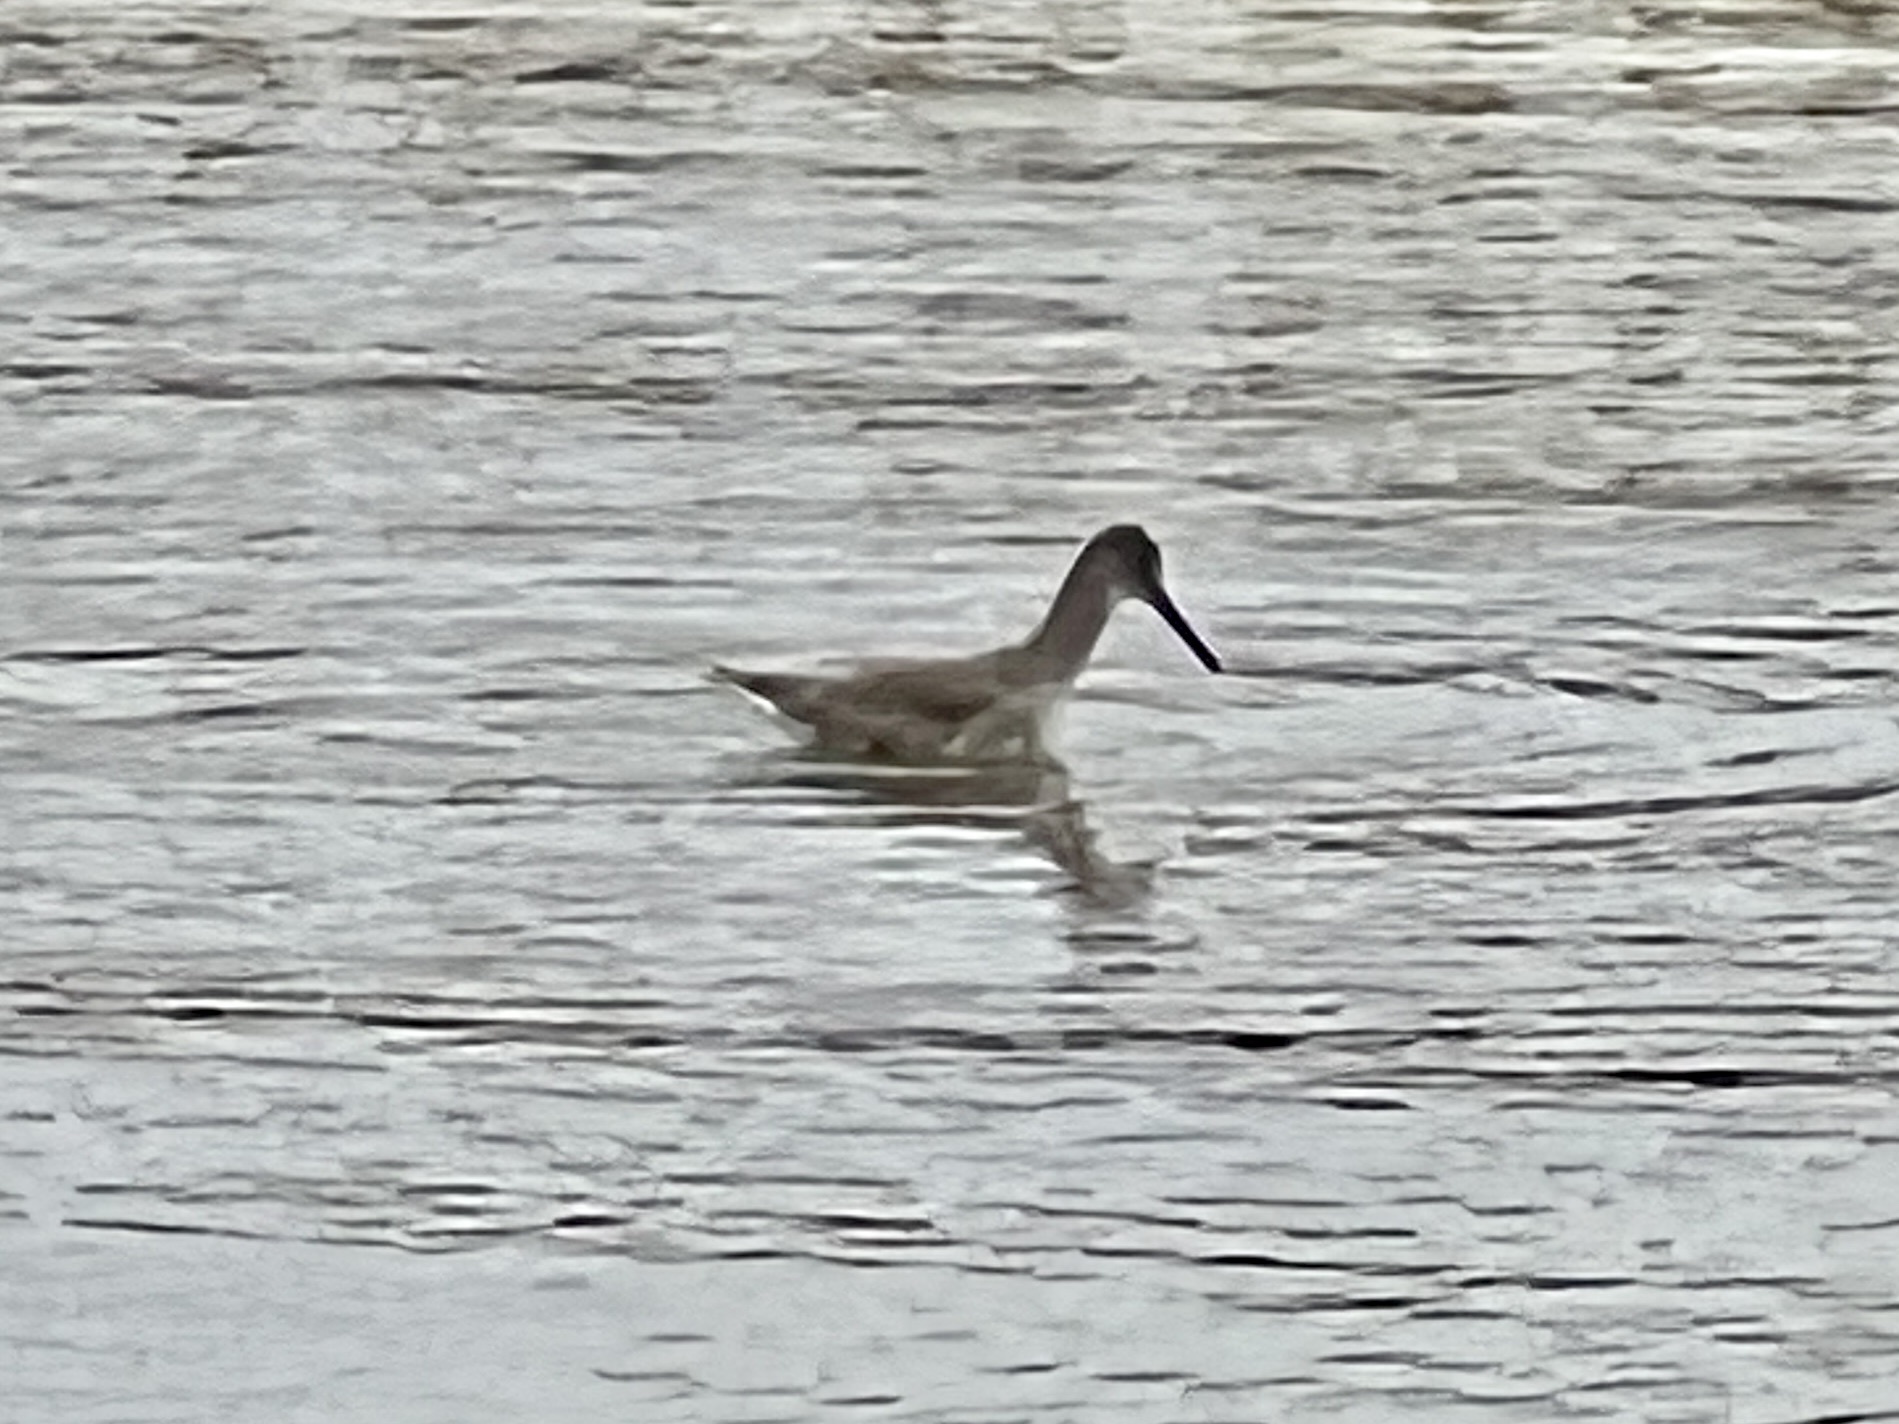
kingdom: Animalia
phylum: Chordata
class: Aves
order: Charadriiformes
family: Scolopacidae
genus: Tringa
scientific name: Tringa semipalmata
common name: Willet
